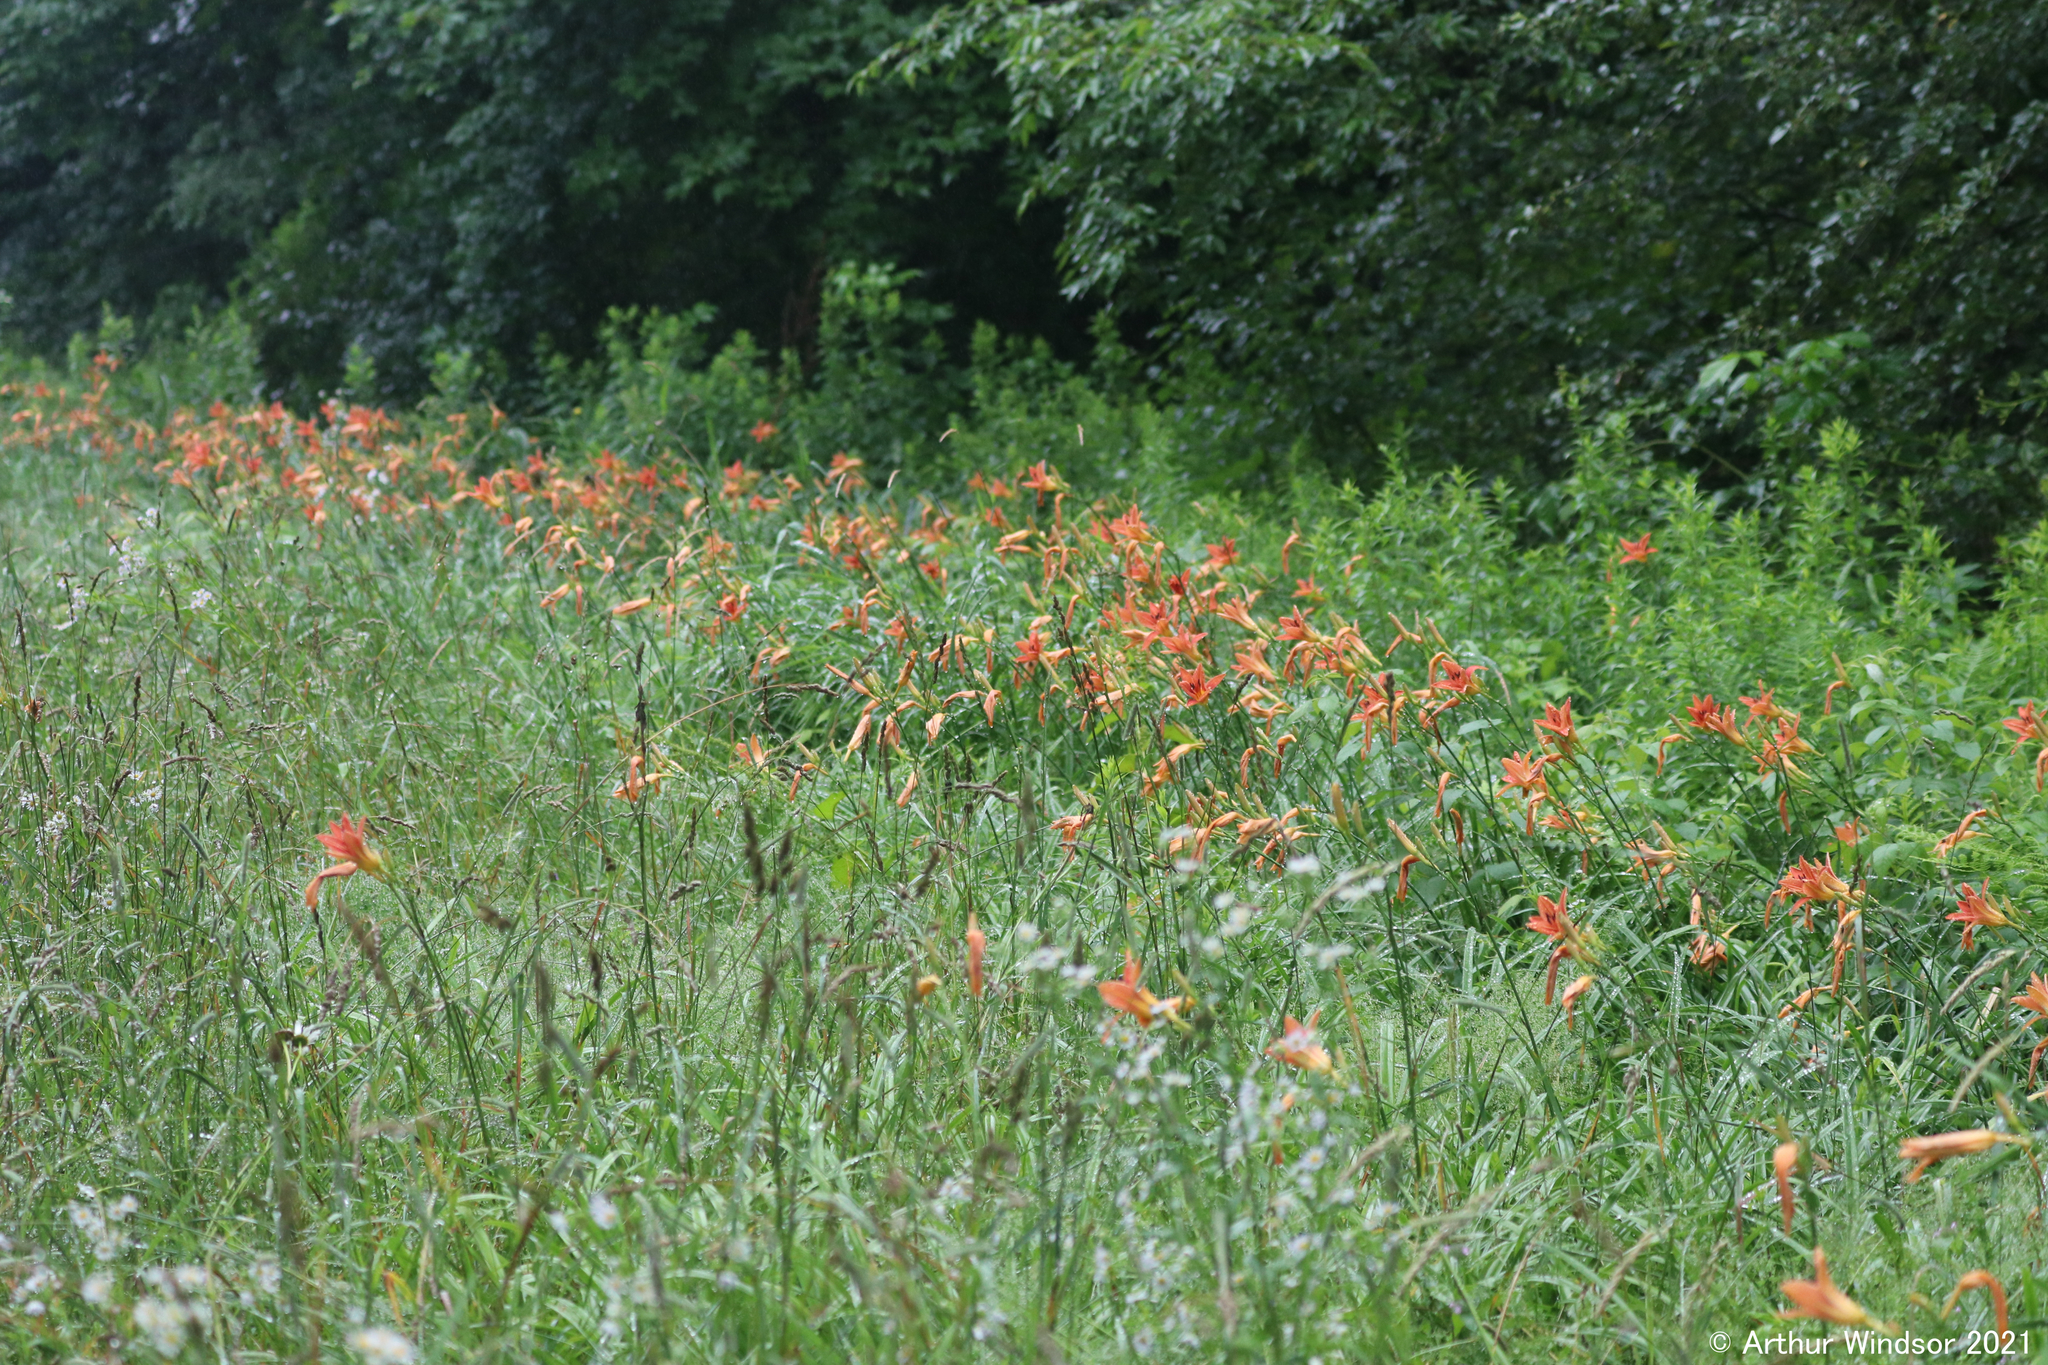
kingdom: Plantae
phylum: Tracheophyta
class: Liliopsida
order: Asparagales
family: Asphodelaceae
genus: Hemerocallis
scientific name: Hemerocallis fulva
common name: Orange day-lily
